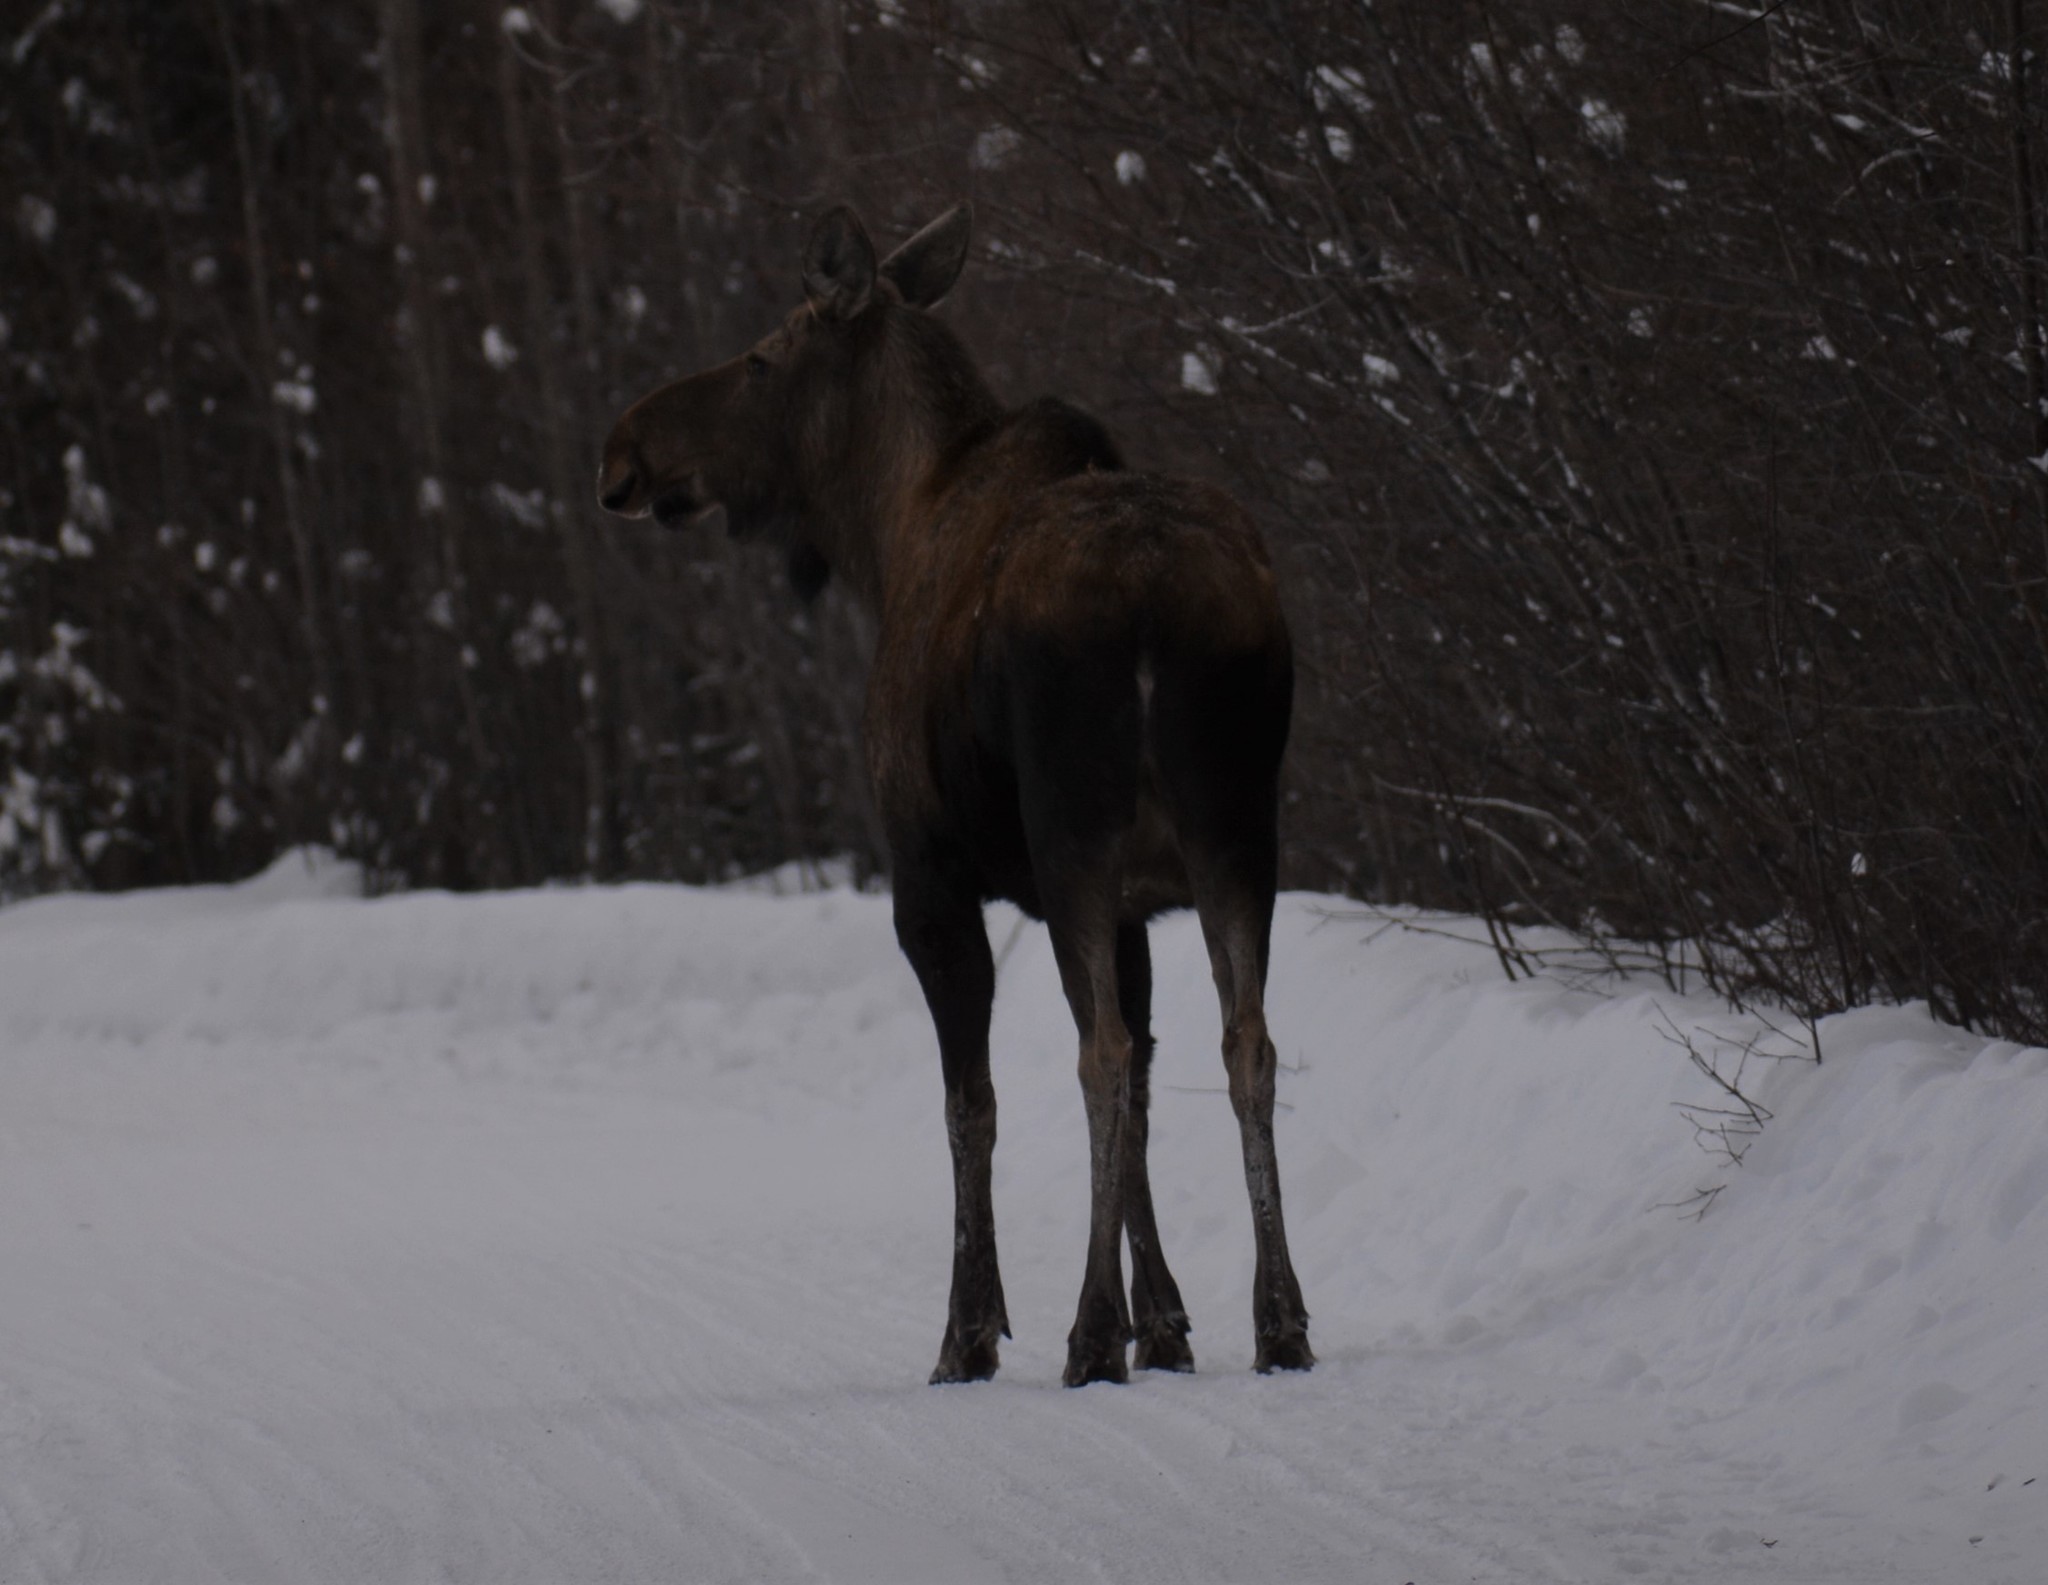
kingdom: Animalia
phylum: Chordata
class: Mammalia
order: Artiodactyla
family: Cervidae
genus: Alces
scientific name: Alces alces
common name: Moose
